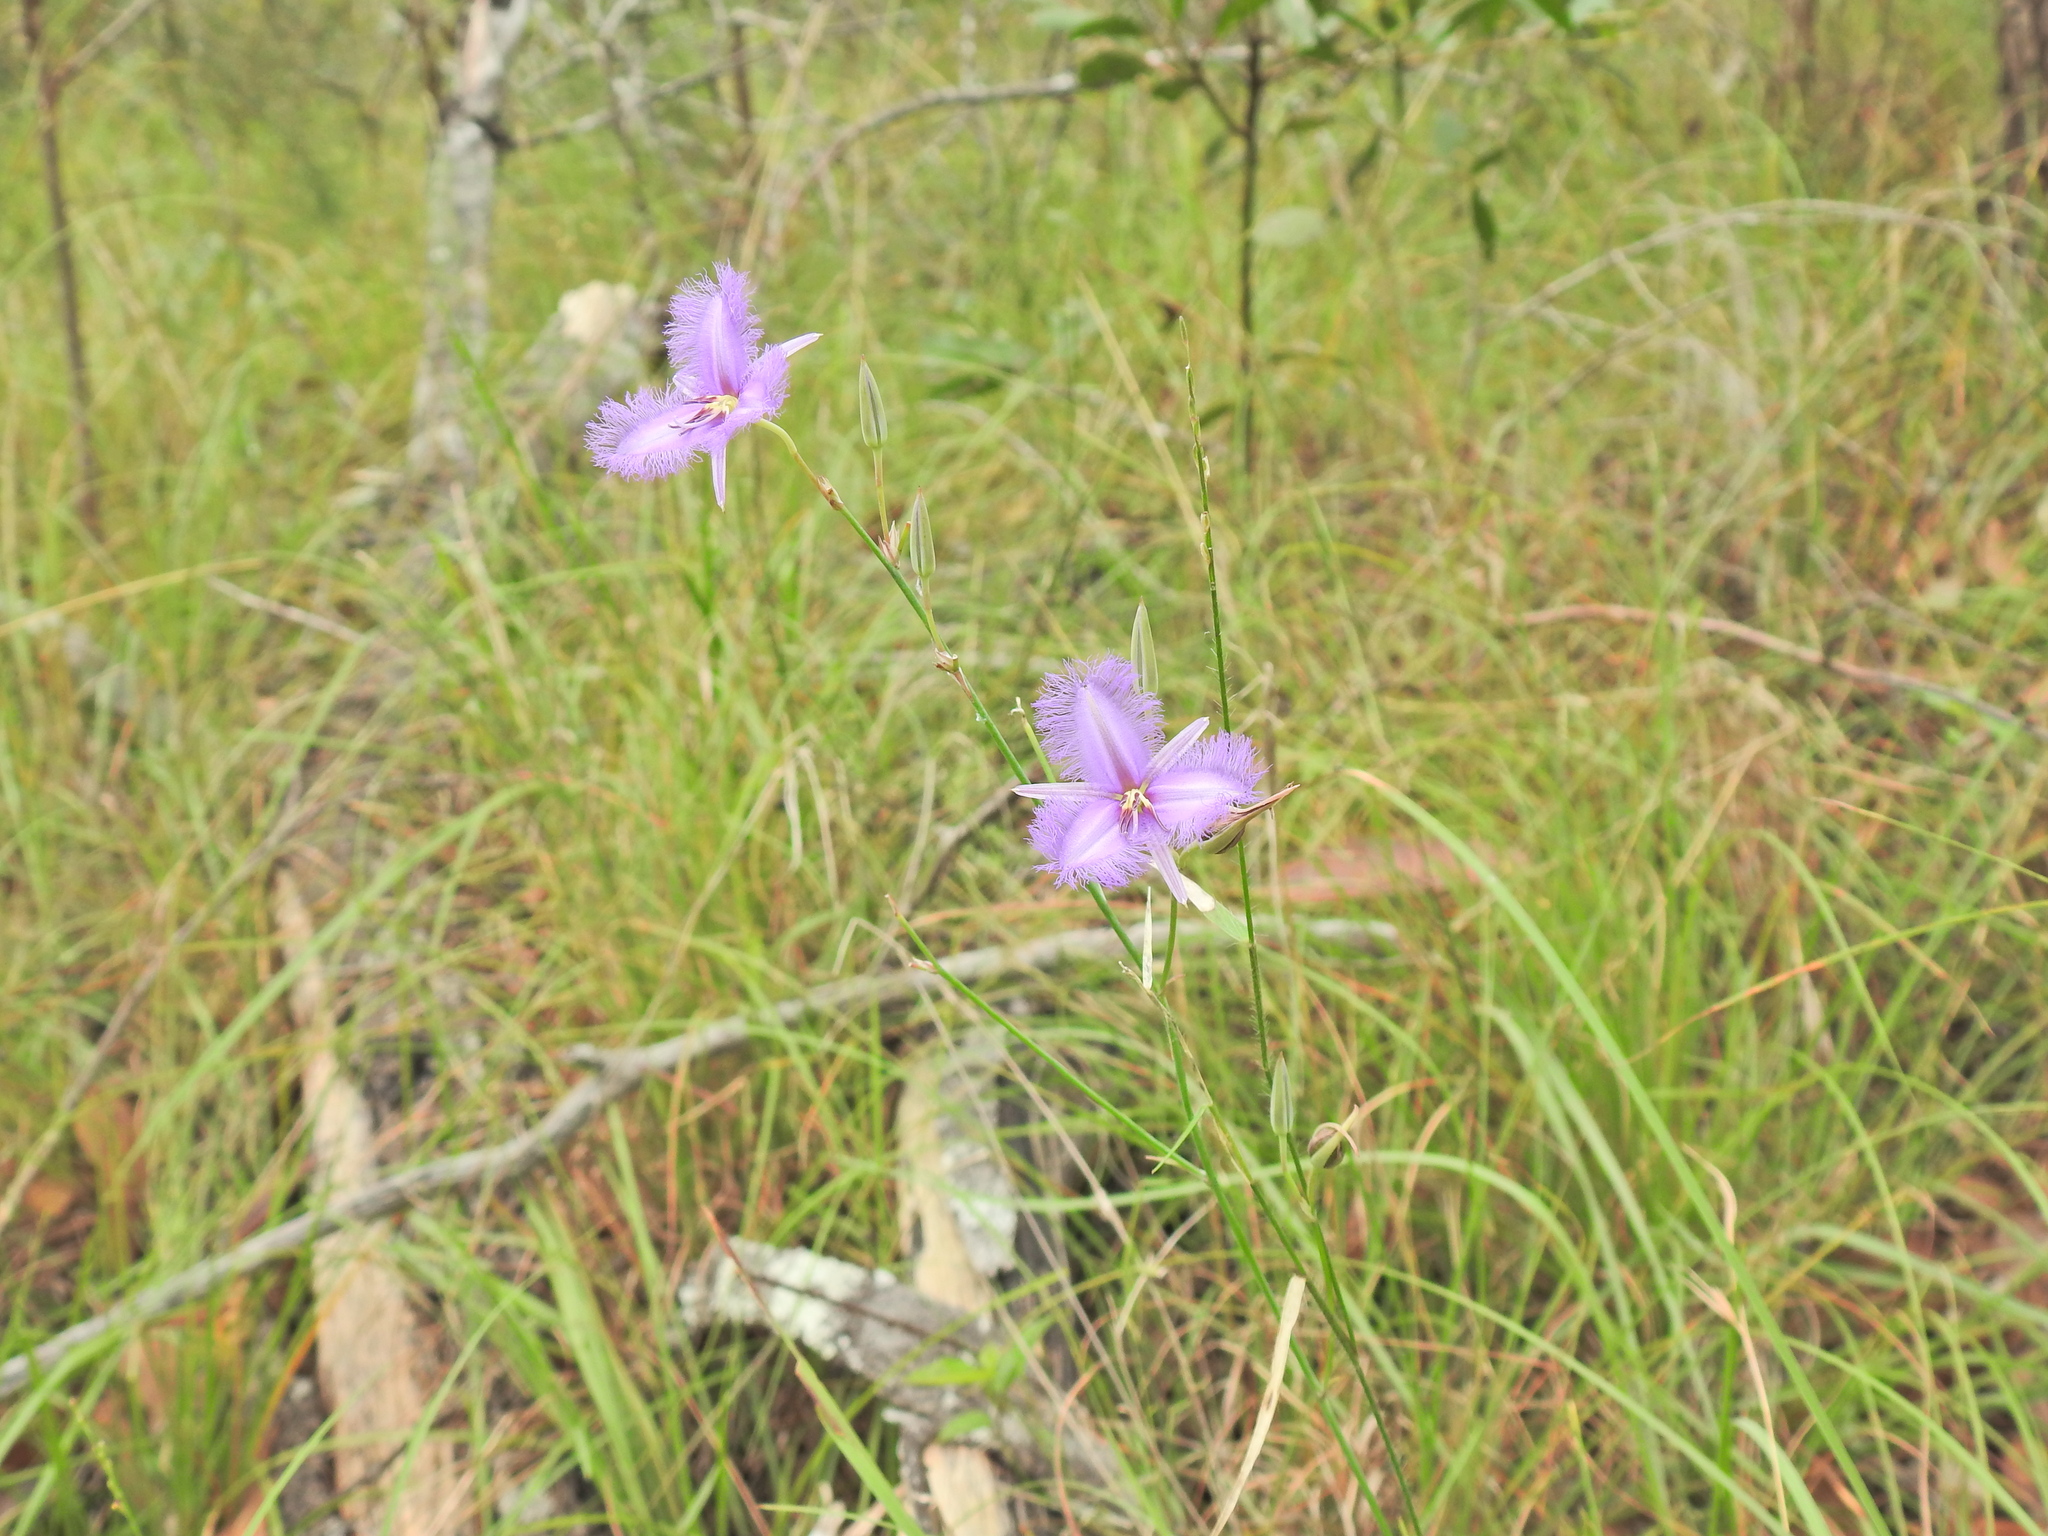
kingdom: Plantae
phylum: Tracheophyta
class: Liliopsida
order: Asparagales
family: Asparagaceae
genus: Thysanotus
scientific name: Thysanotus tuberosus
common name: Common fringed-lily
